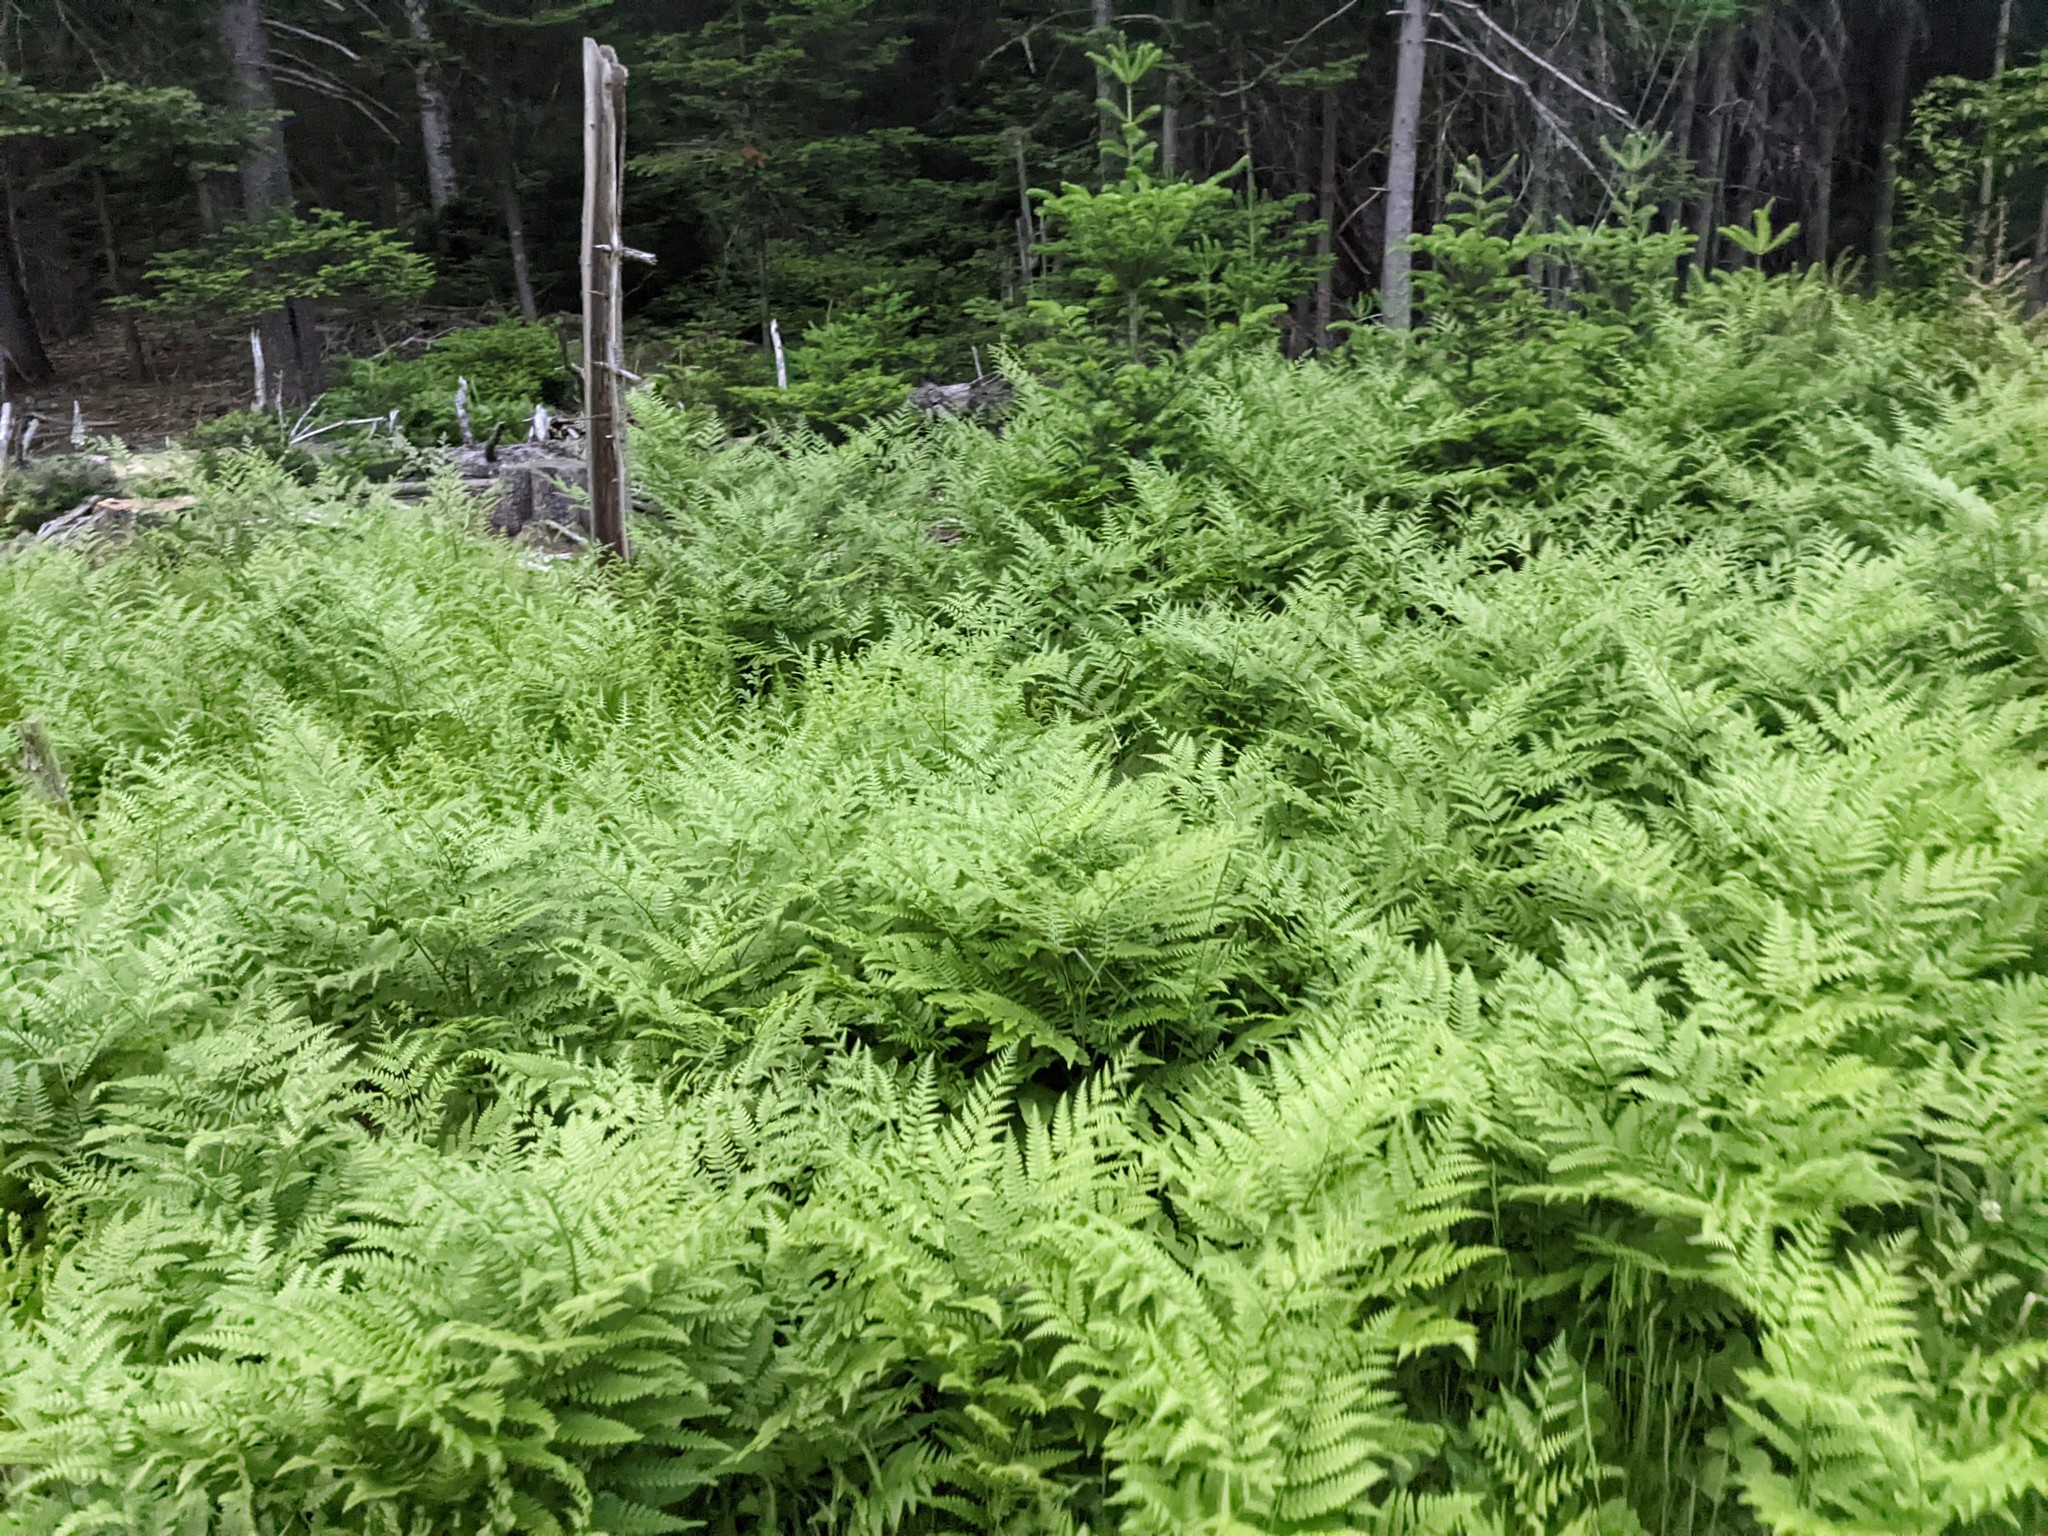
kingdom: Plantae
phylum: Tracheophyta
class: Polypodiopsida
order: Polypodiales
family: Dennstaedtiaceae
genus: Pteridium
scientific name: Pteridium aquilinum
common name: Bracken
